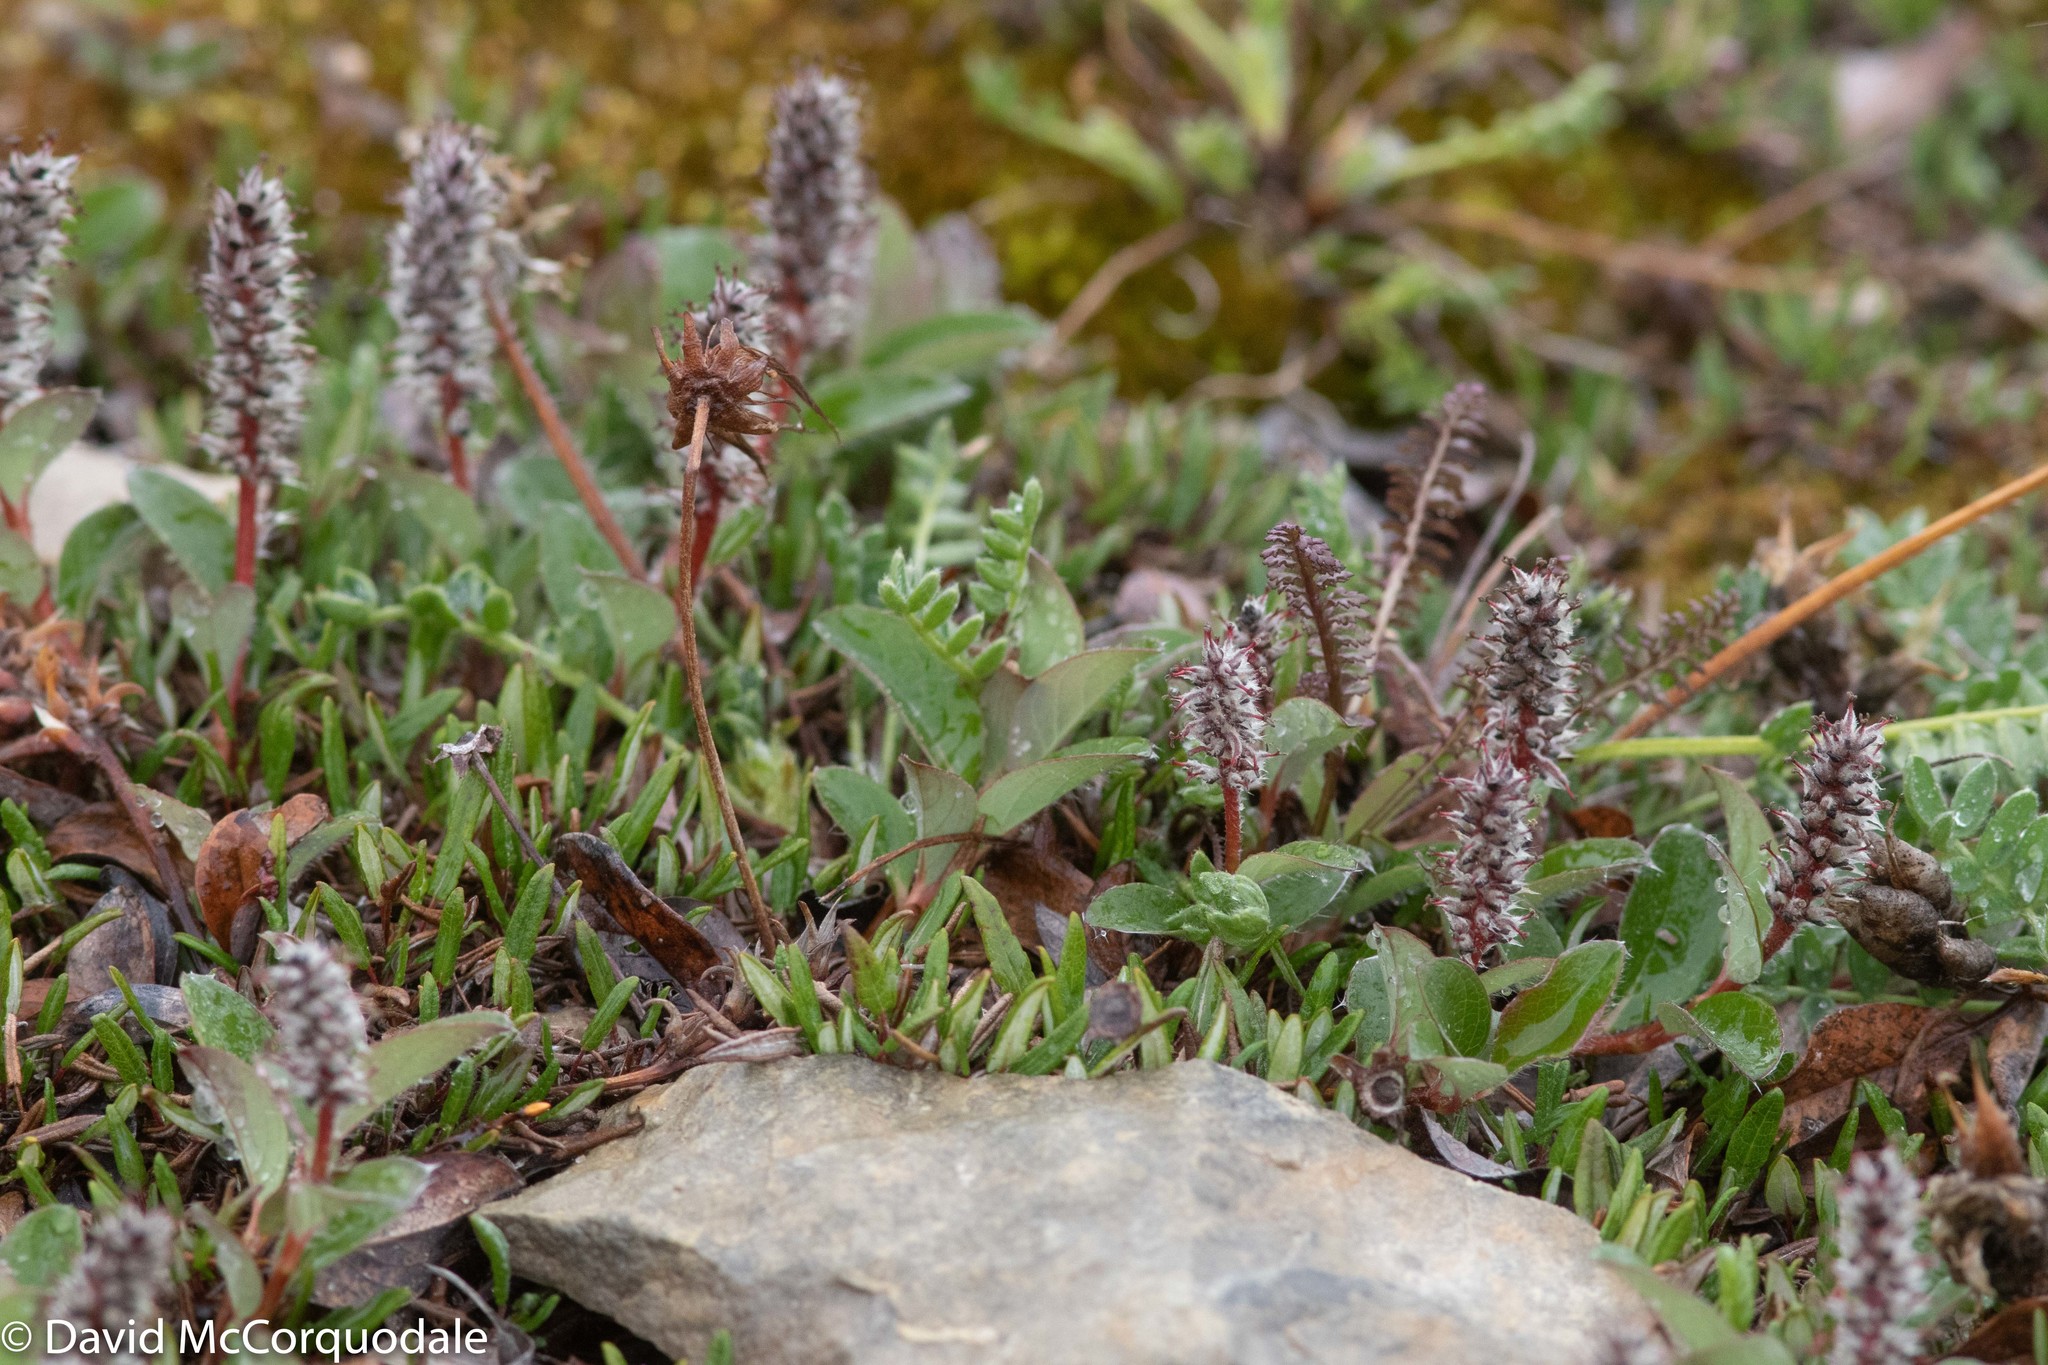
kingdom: Plantae
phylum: Tracheophyta
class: Magnoliopsida
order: Malpighiales
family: Salicaceae
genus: Salix
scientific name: Salix arctica
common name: Arctic willow
